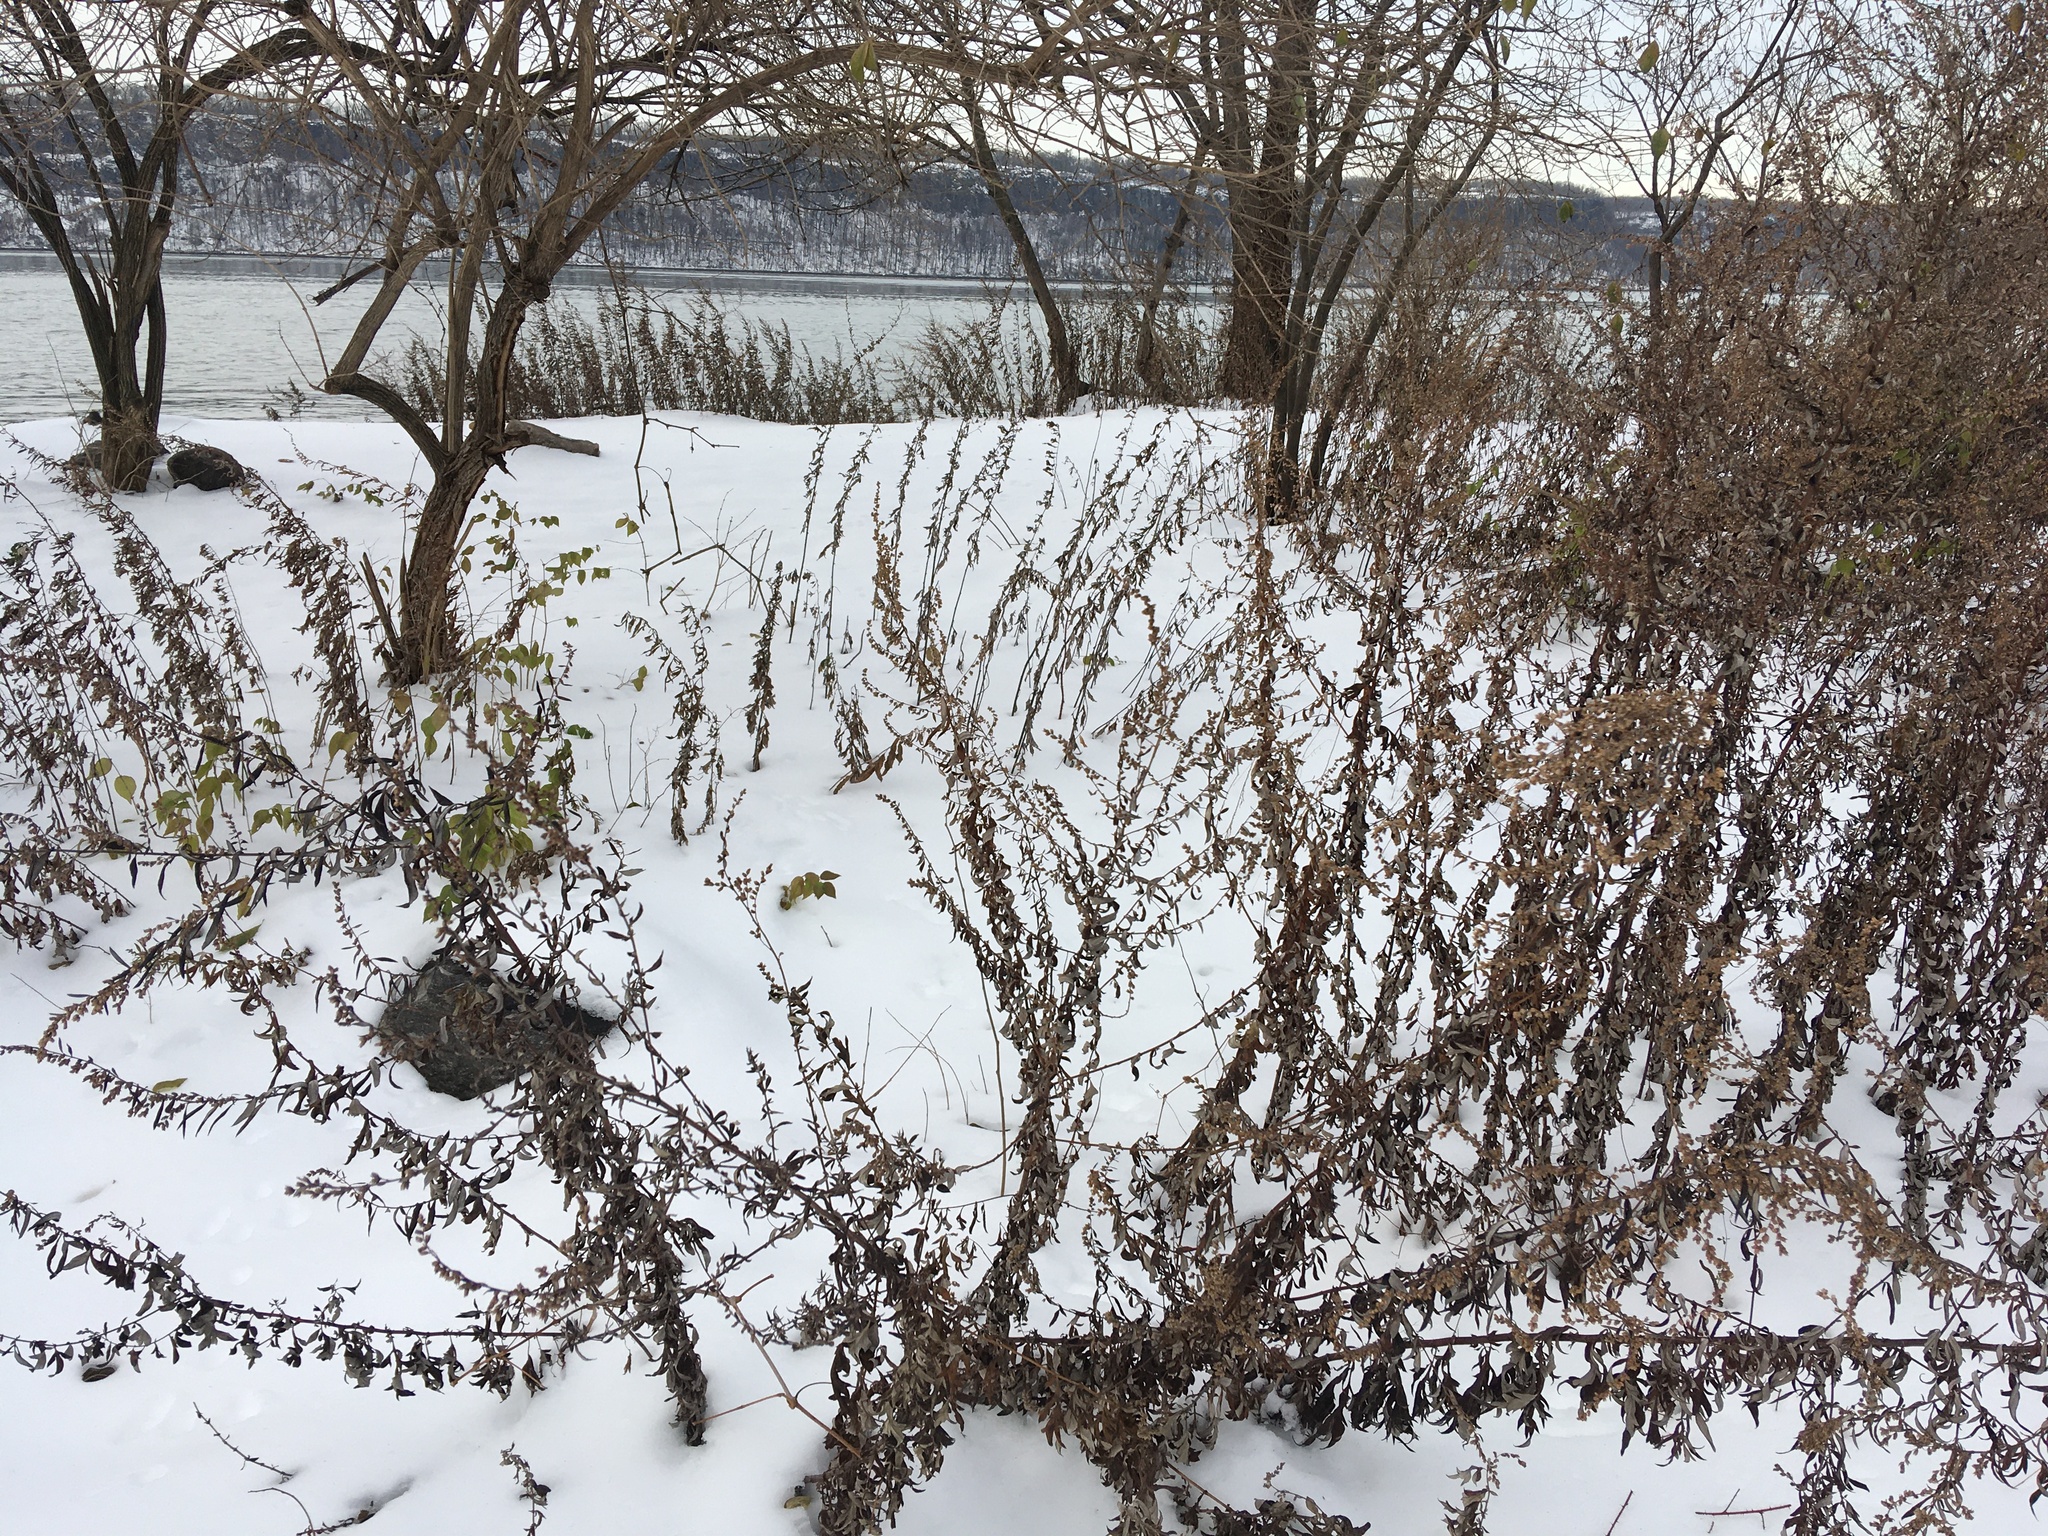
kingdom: Plantae
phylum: Tracheophyta
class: Magnoliopsida
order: Asterales
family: Asteraceae
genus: Artemisia
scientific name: Artemisia vulgaris
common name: Mugwort
